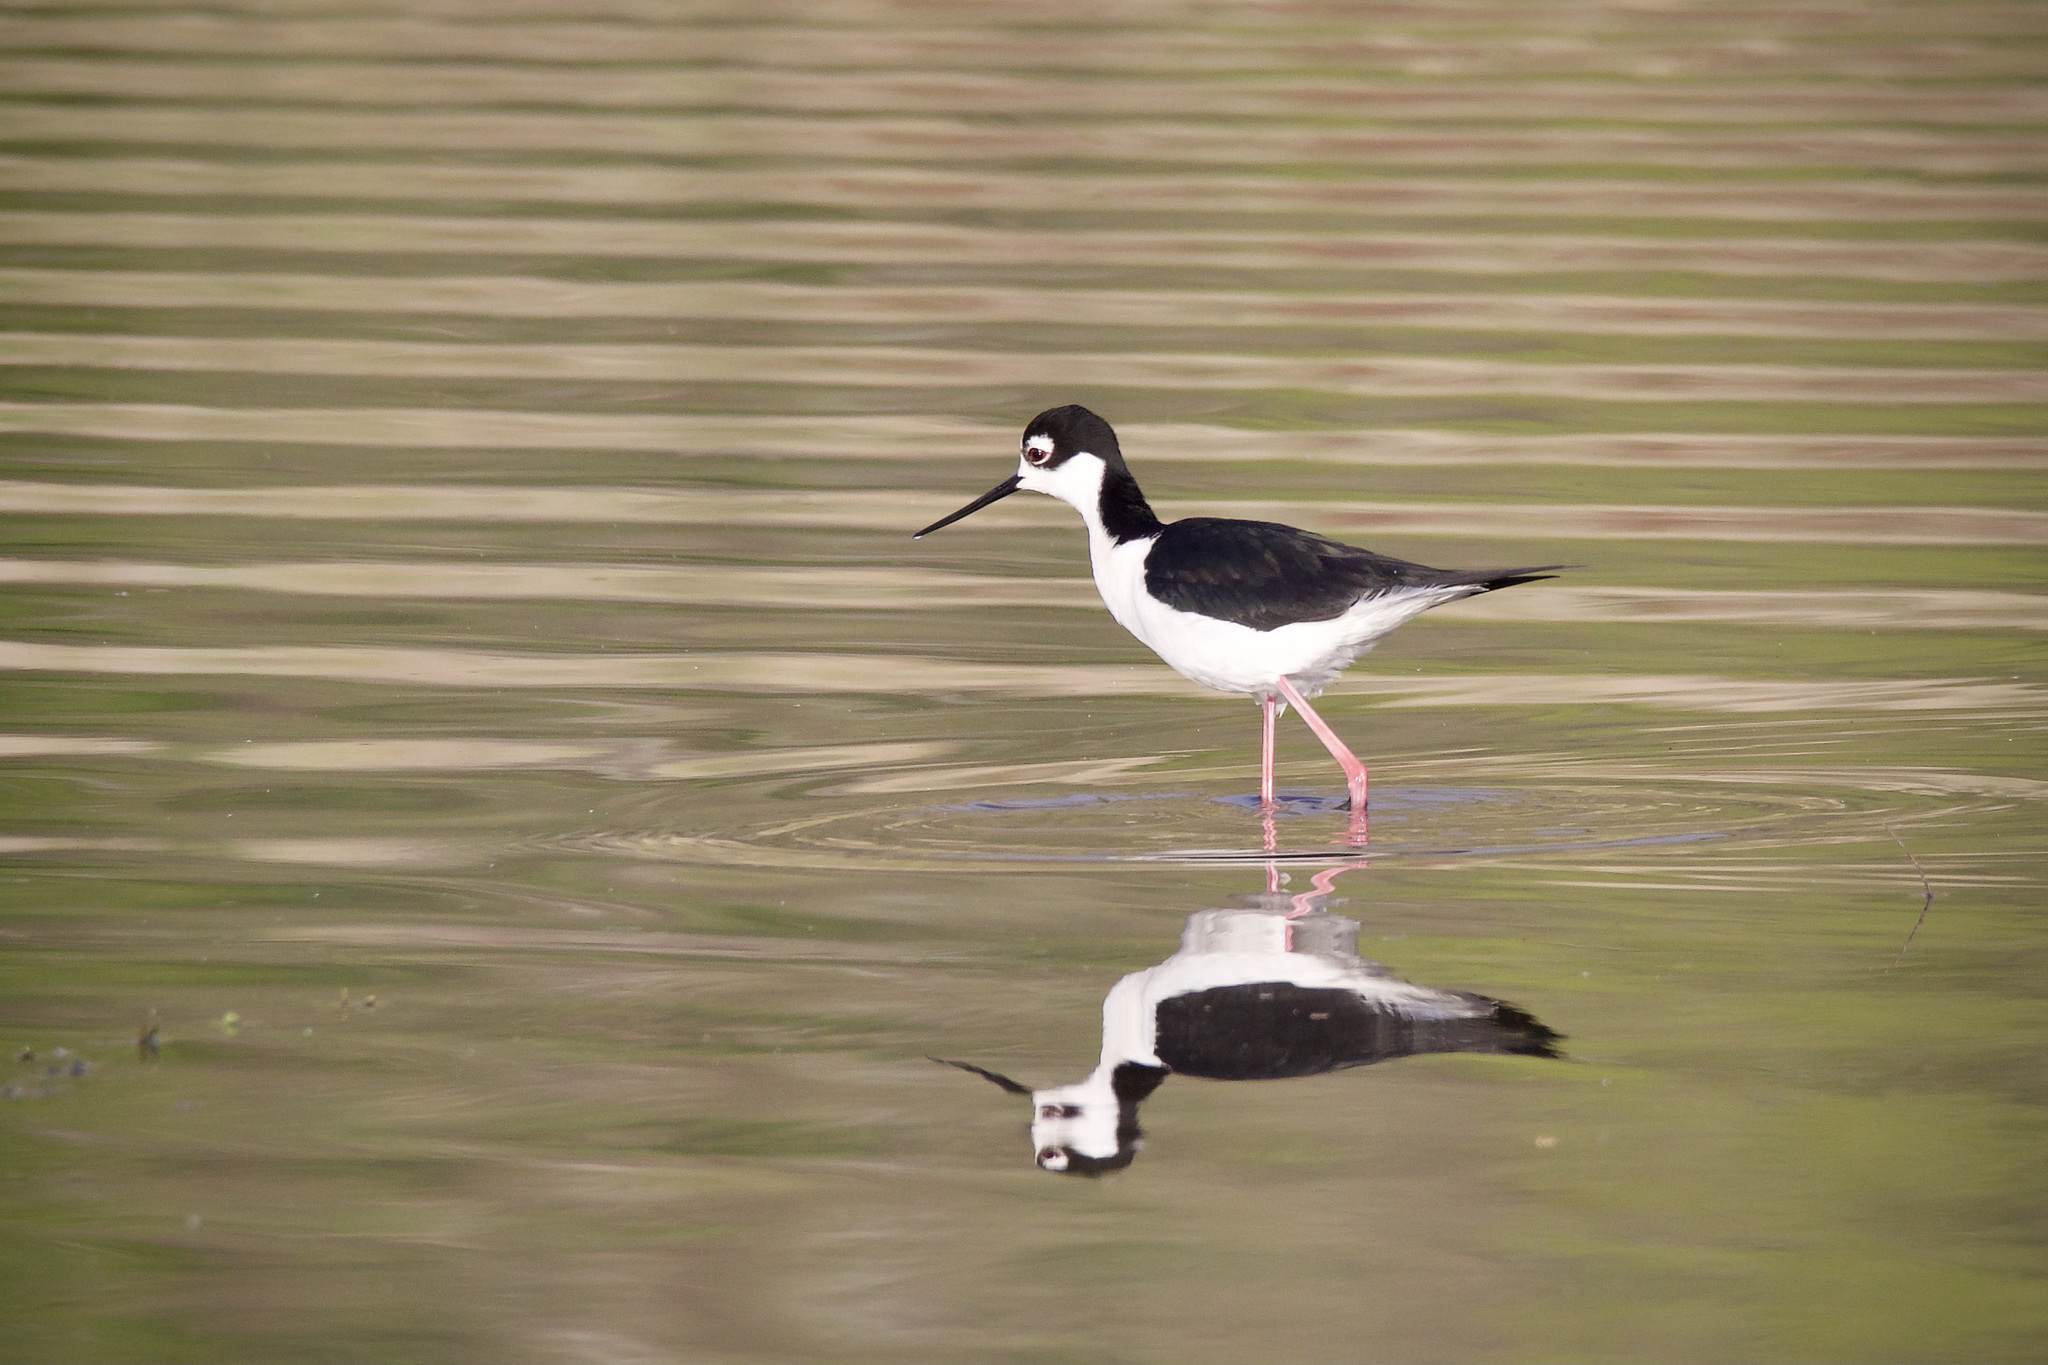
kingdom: Animalia
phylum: Chordata
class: Aves
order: Charadriiformes
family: Recurvirostridae
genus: Himantopus
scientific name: Himantopus mexicanus
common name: Black-necked stilt
